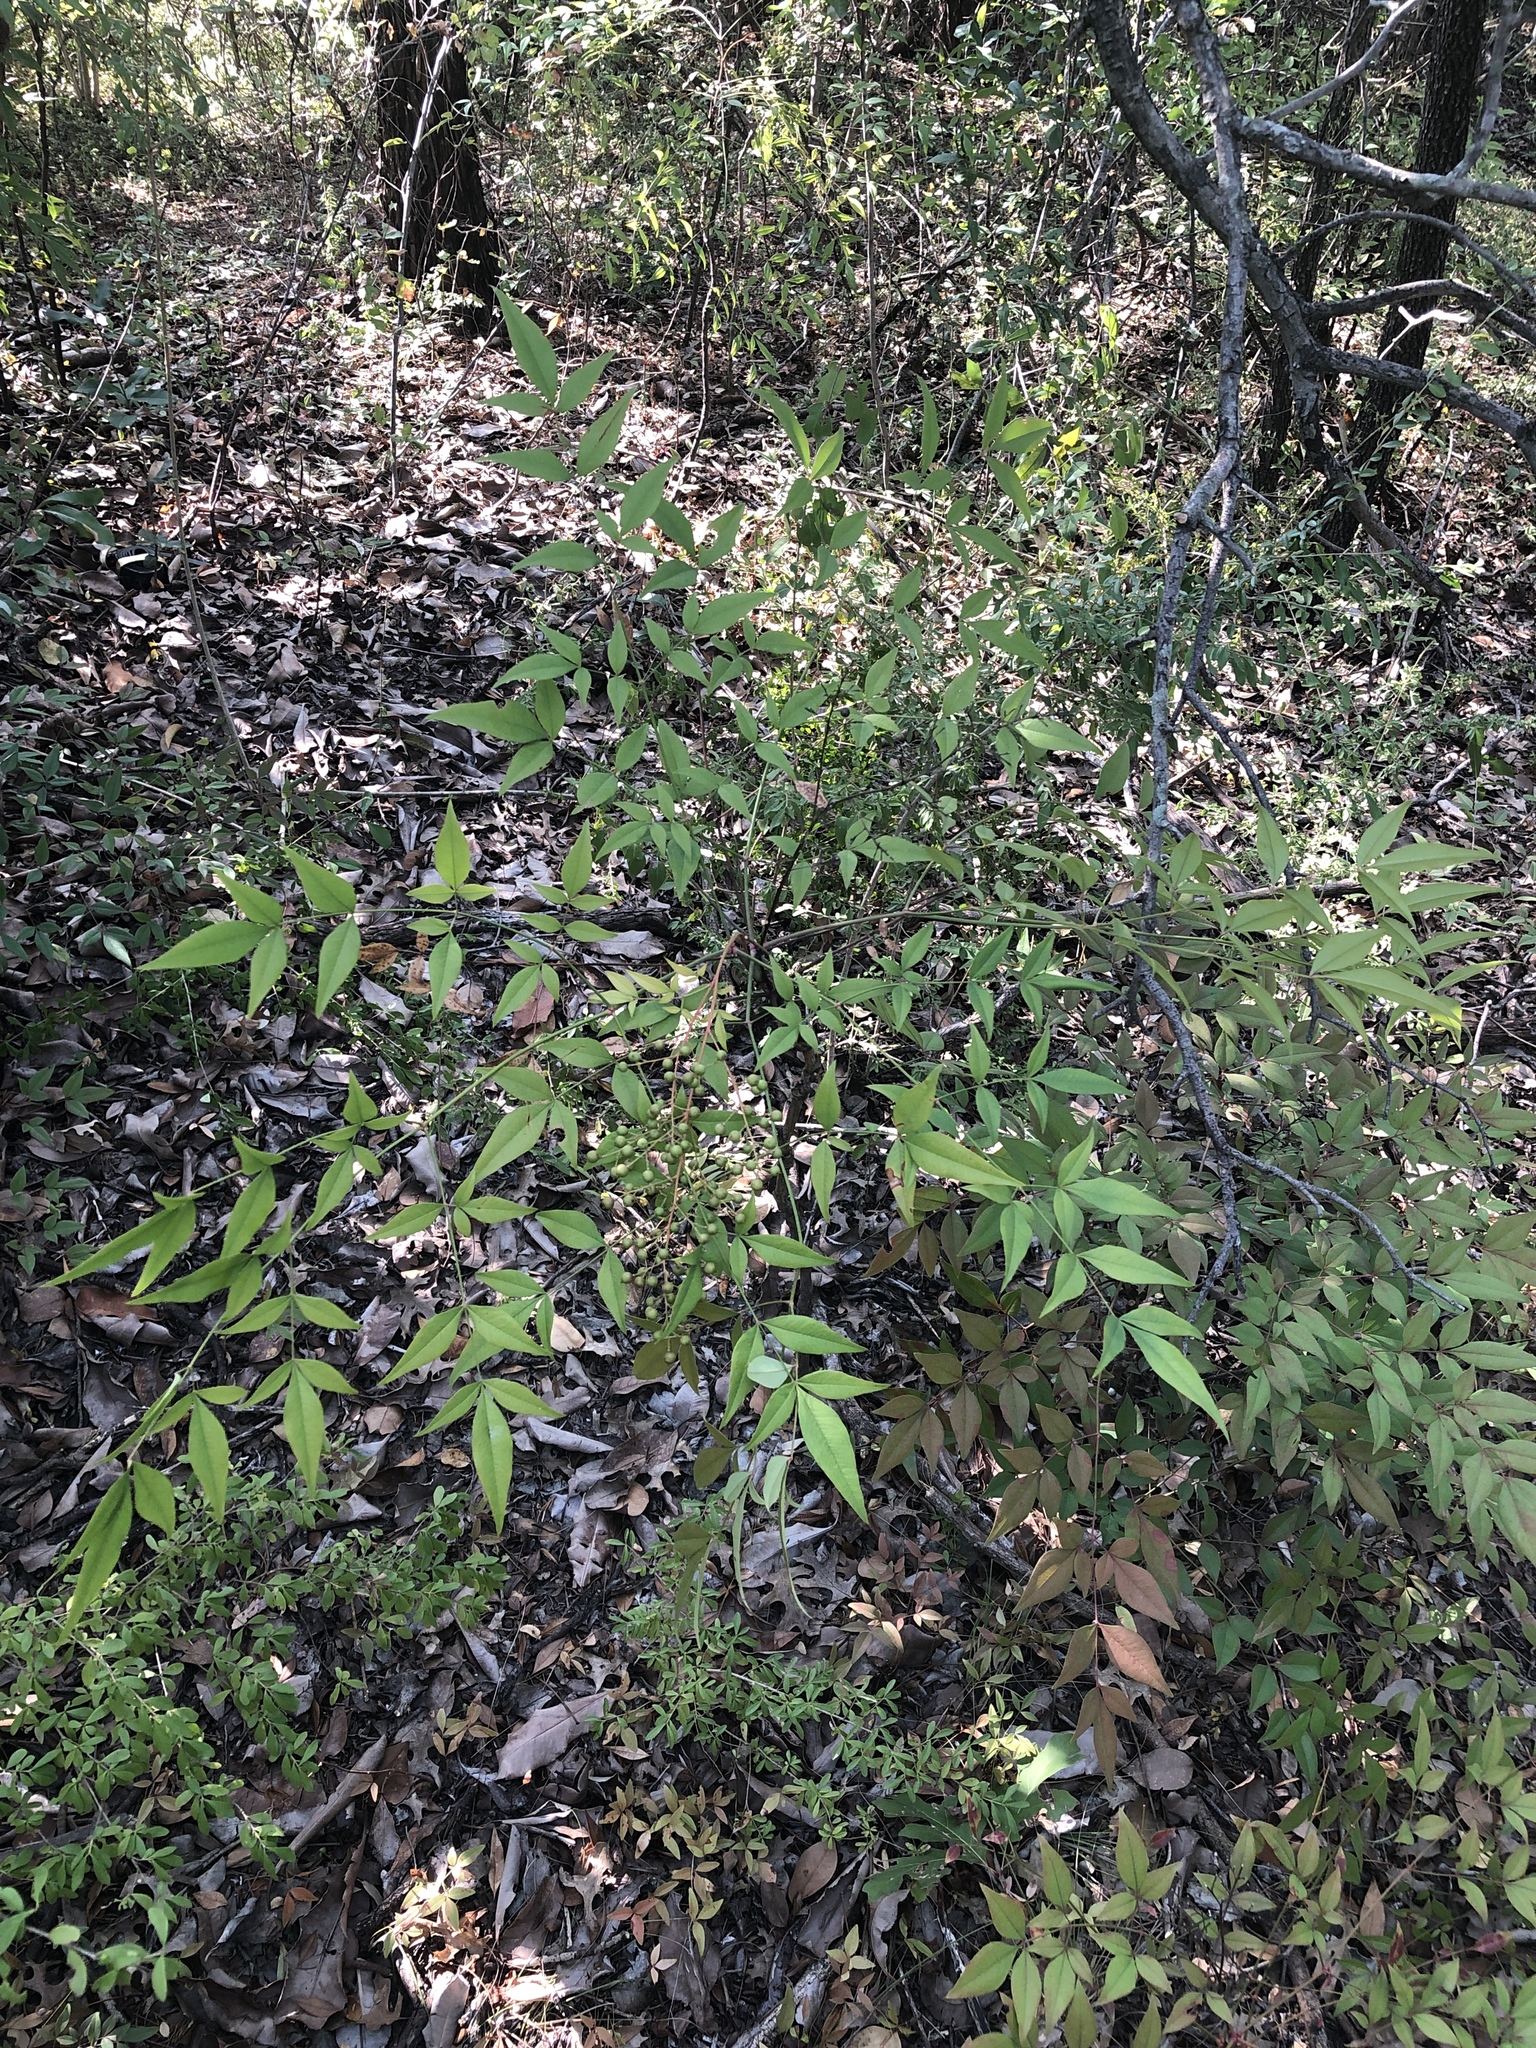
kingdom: Plantae
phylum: Tracheophyta
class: Magnoliopsida
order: Ranunculales
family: Berberidaceae
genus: Nandina
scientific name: Nandina domestica
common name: Sacred bamboo
